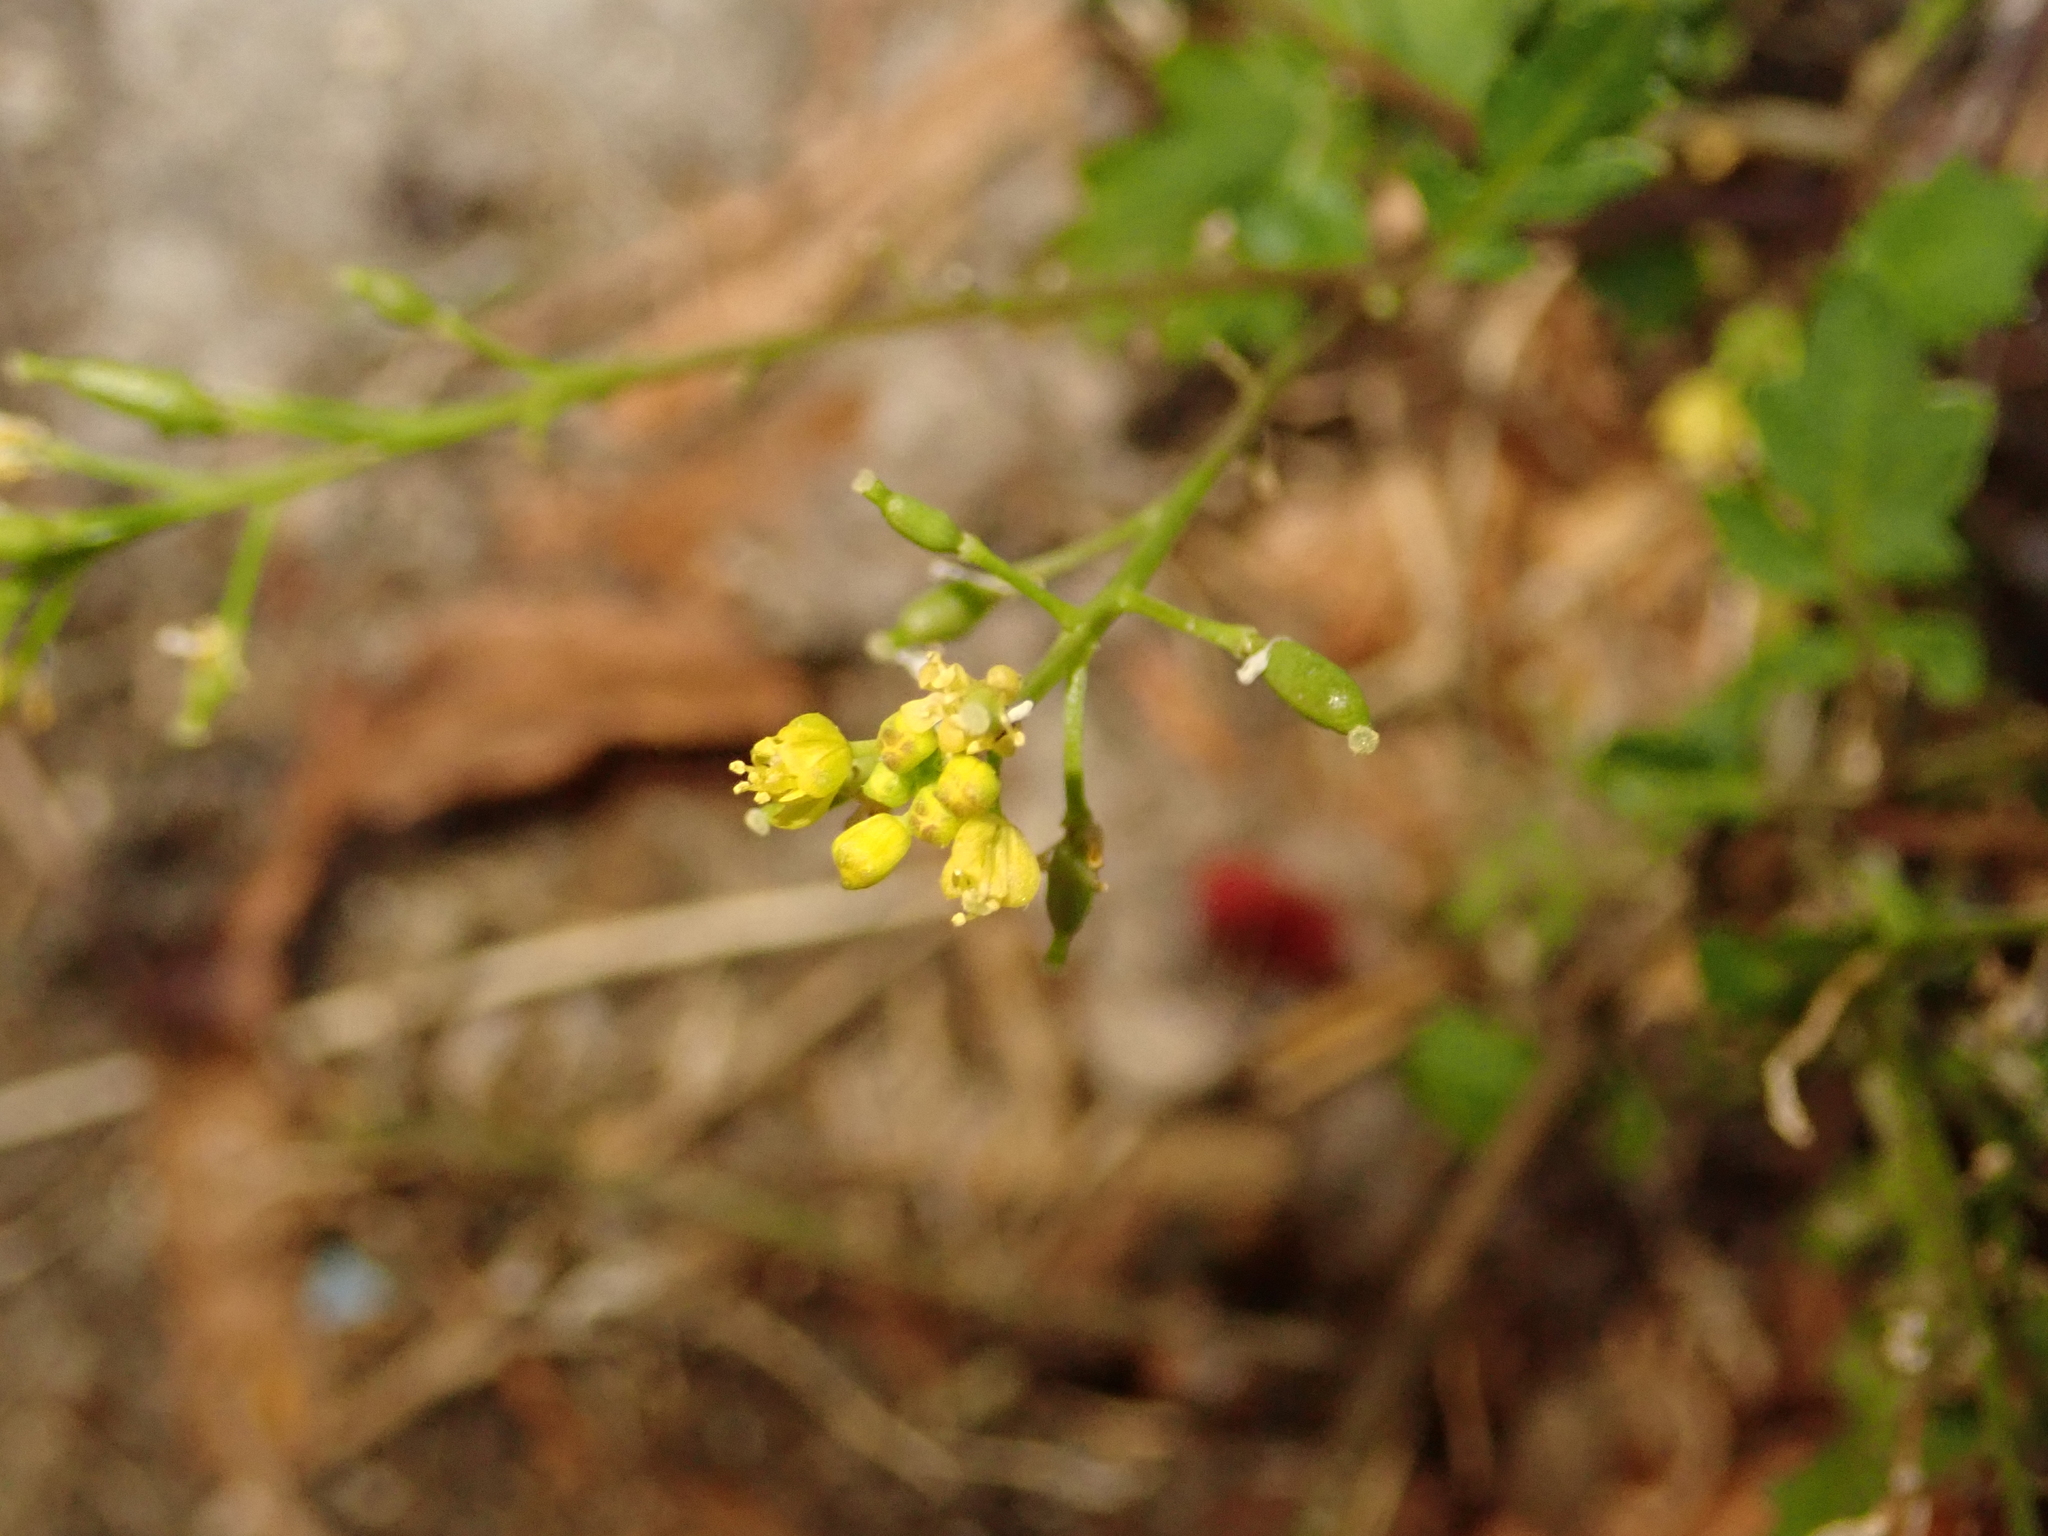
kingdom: Plantae
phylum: Tracheophyta
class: Magnoliopsida
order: Brassicales
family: Brassicaceae
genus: Rorippa
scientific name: Rorippa palustris
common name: Marsh yellow-cress
